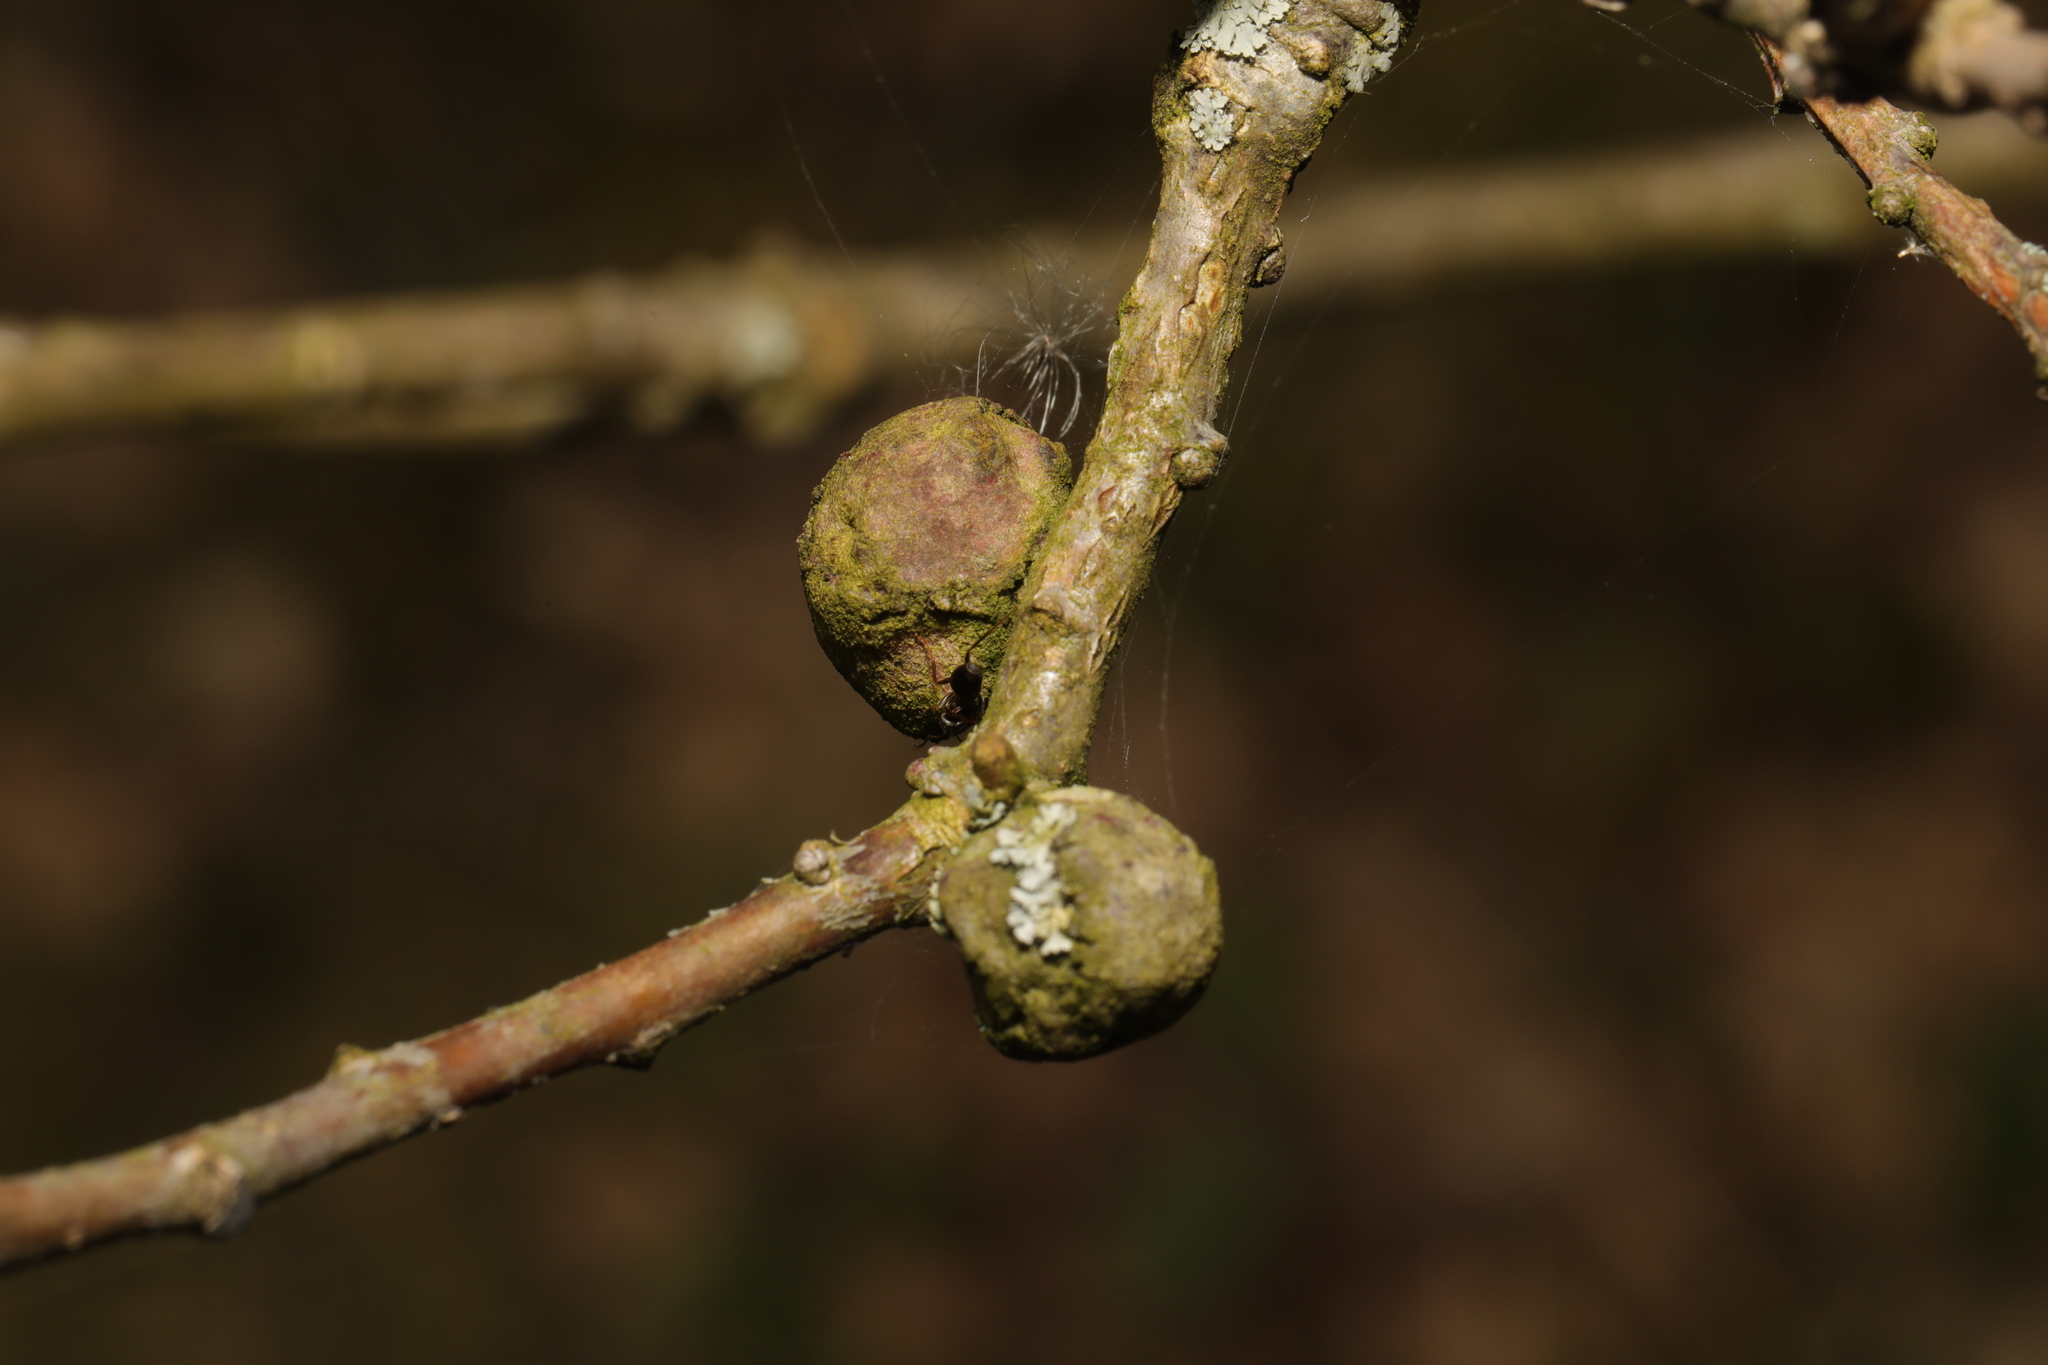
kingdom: Animalia
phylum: Arthropoda
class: Insecta
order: Hymenoptera
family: Cynipidae
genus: Andricus
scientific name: Andricus lignicolus
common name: Cola-nut gall
